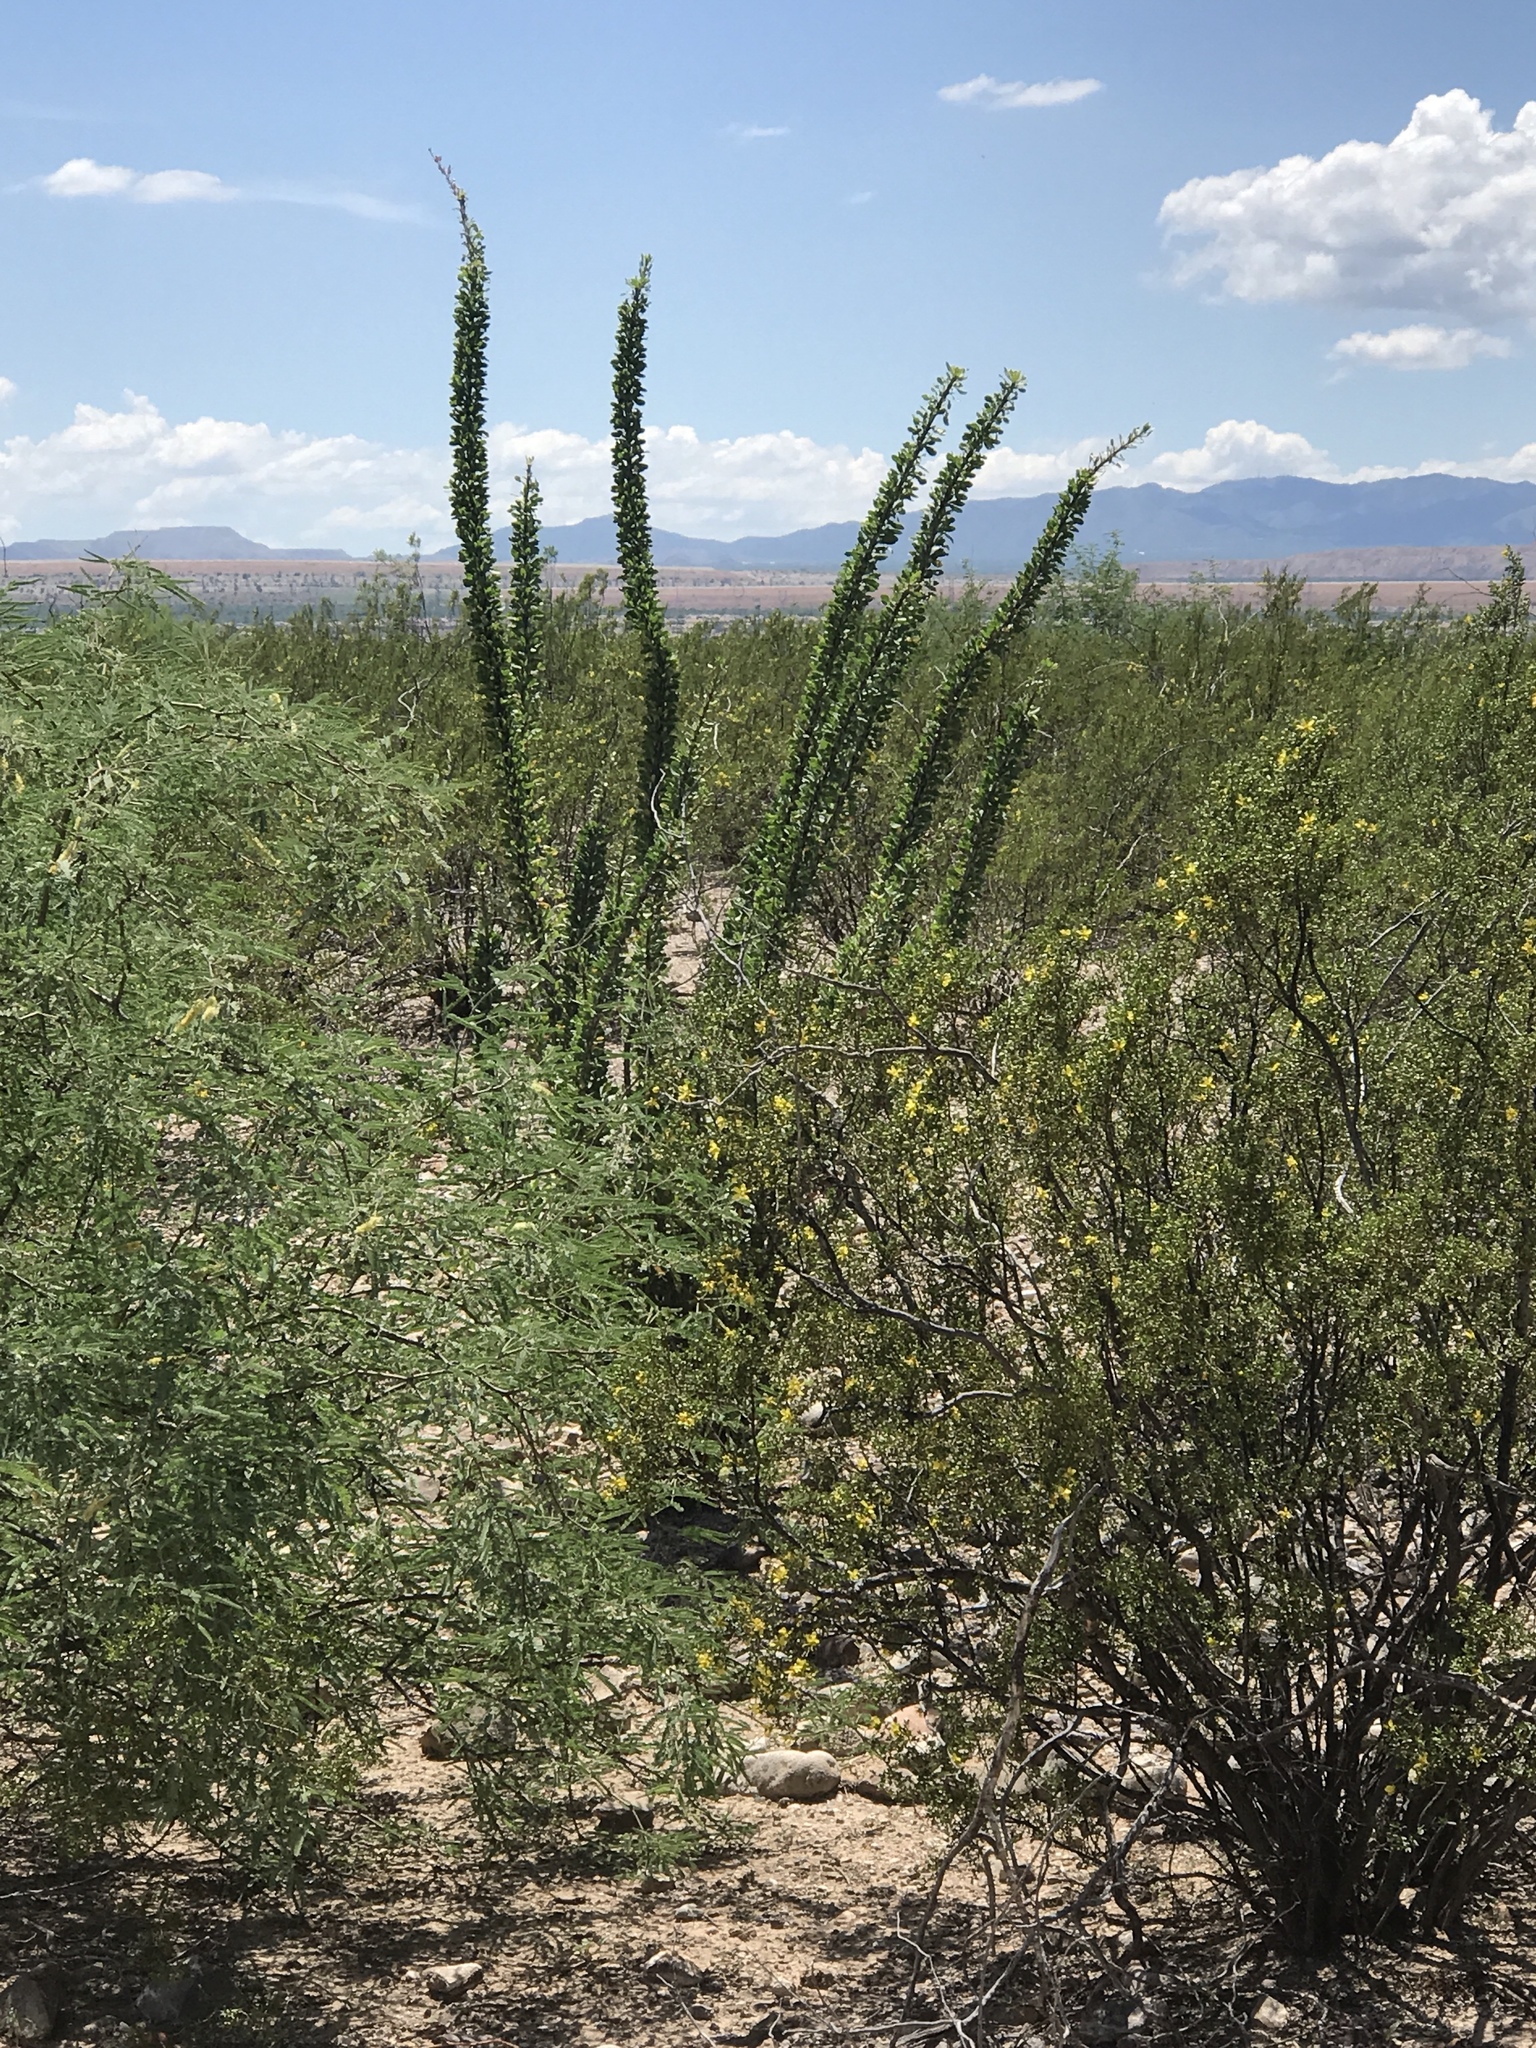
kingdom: Plantae
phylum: Tracheophyta
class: Magnoliopsida
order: Ericales
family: Fouquieriaceae
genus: Fouquieria
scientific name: Fouquieria splendens
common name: Vine-cactus
